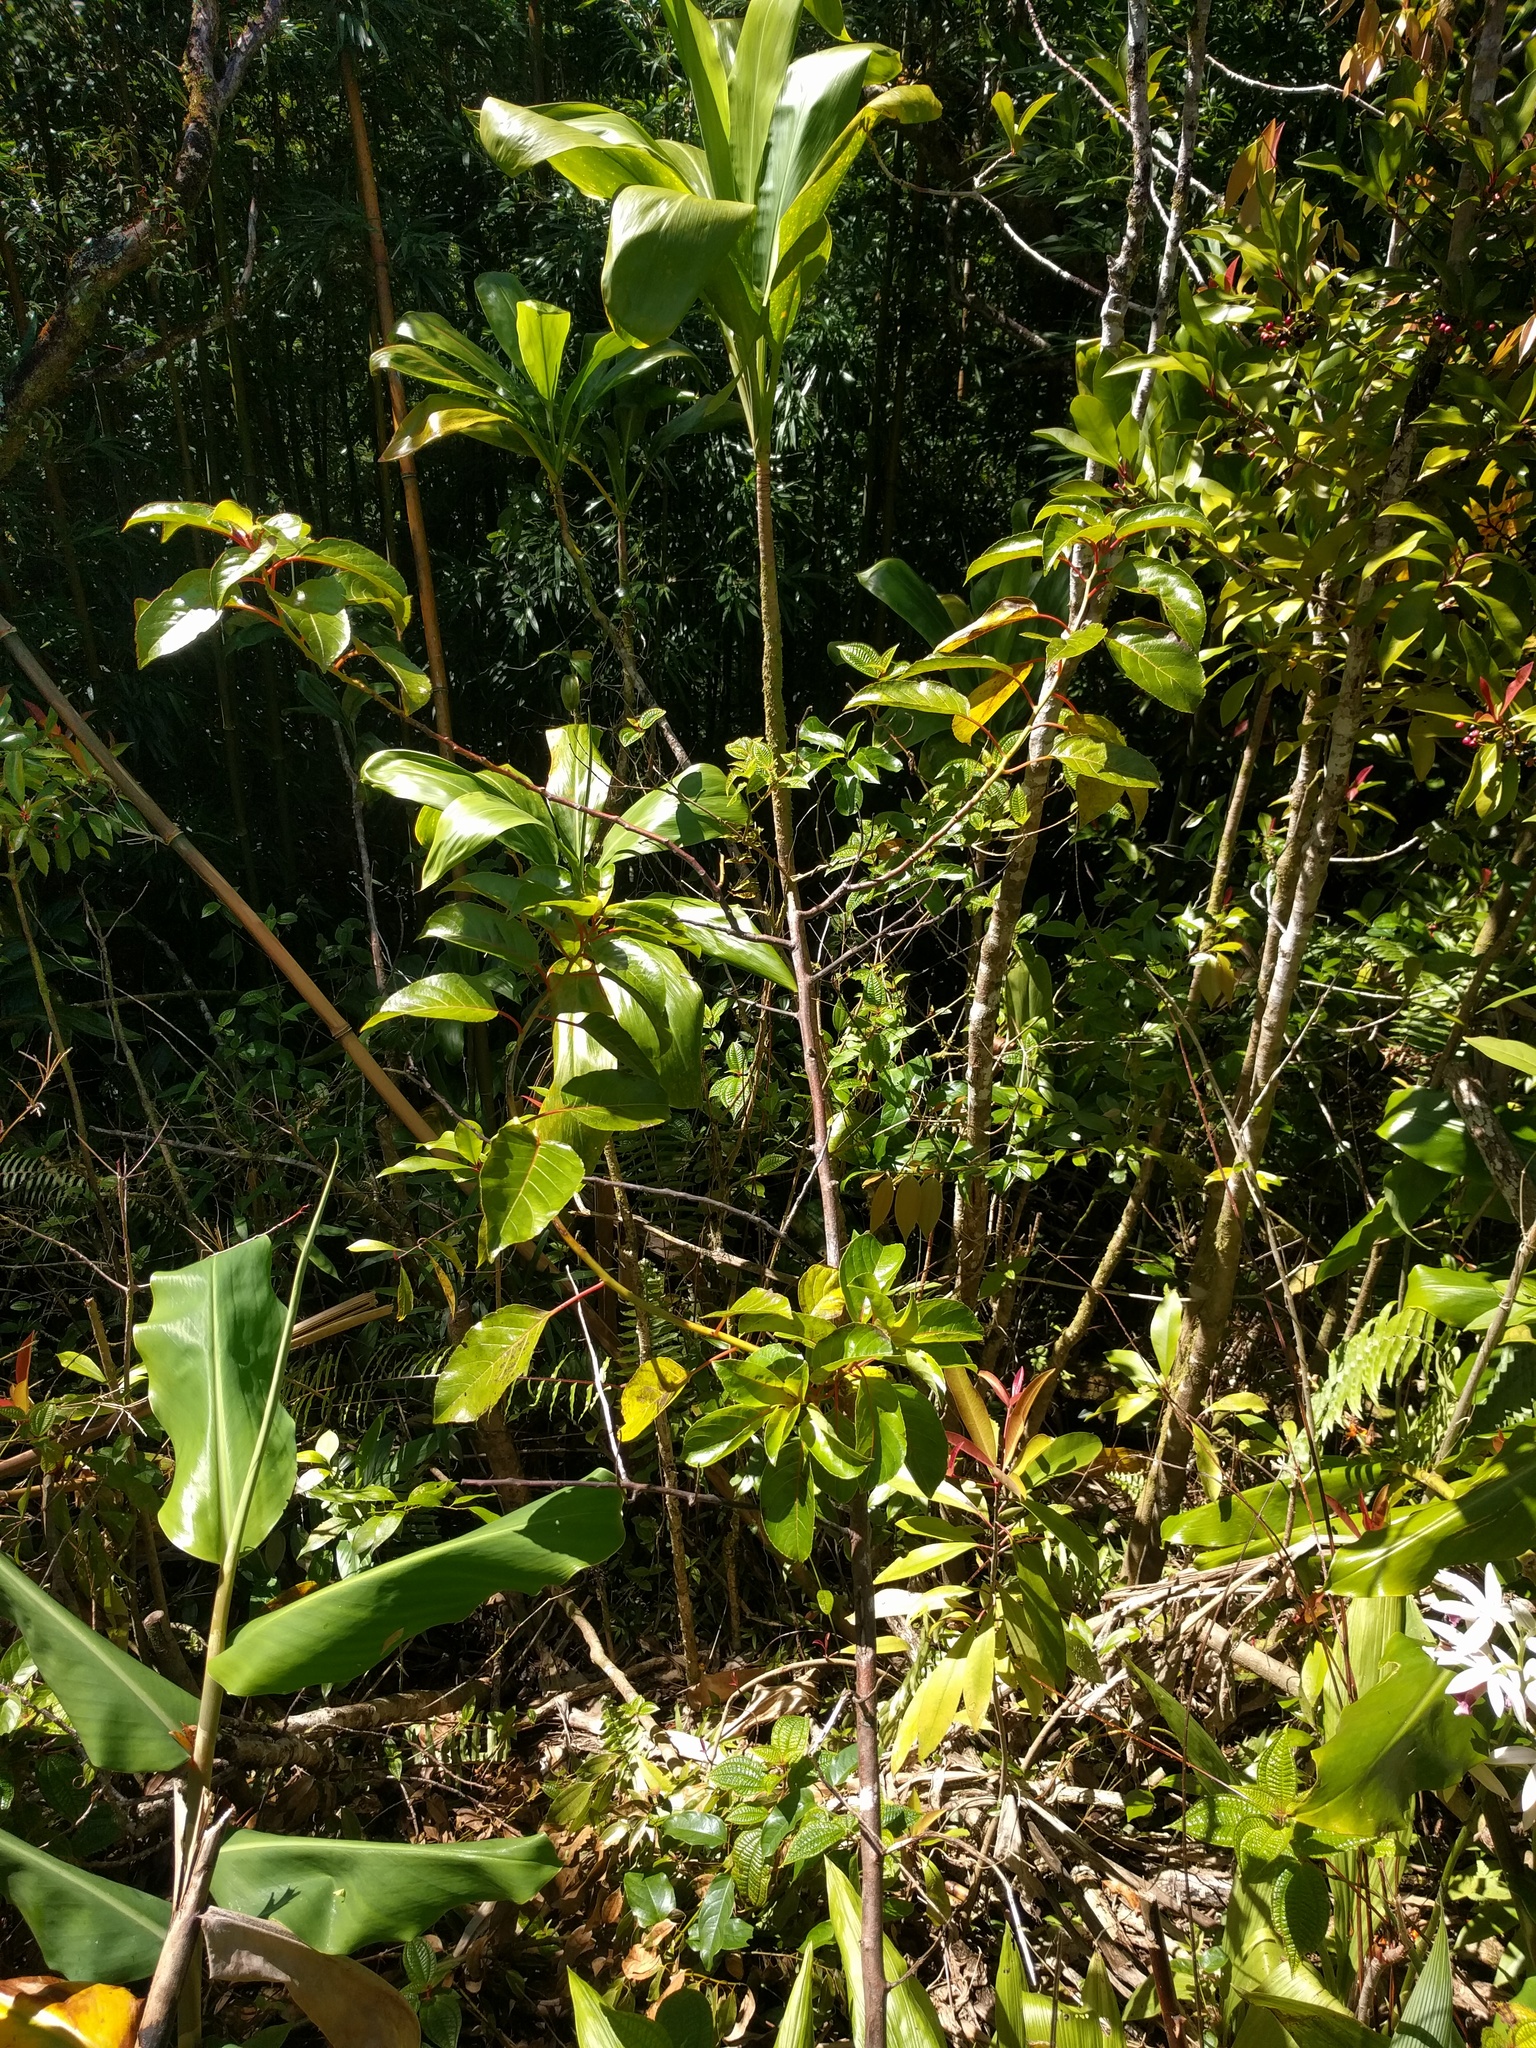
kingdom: Plantae
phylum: Tracheophyta
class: Magnoliopsida
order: Huerteales
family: Dipentodontaceae
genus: Perrottetia
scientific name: Perrottetia sandwicensis
